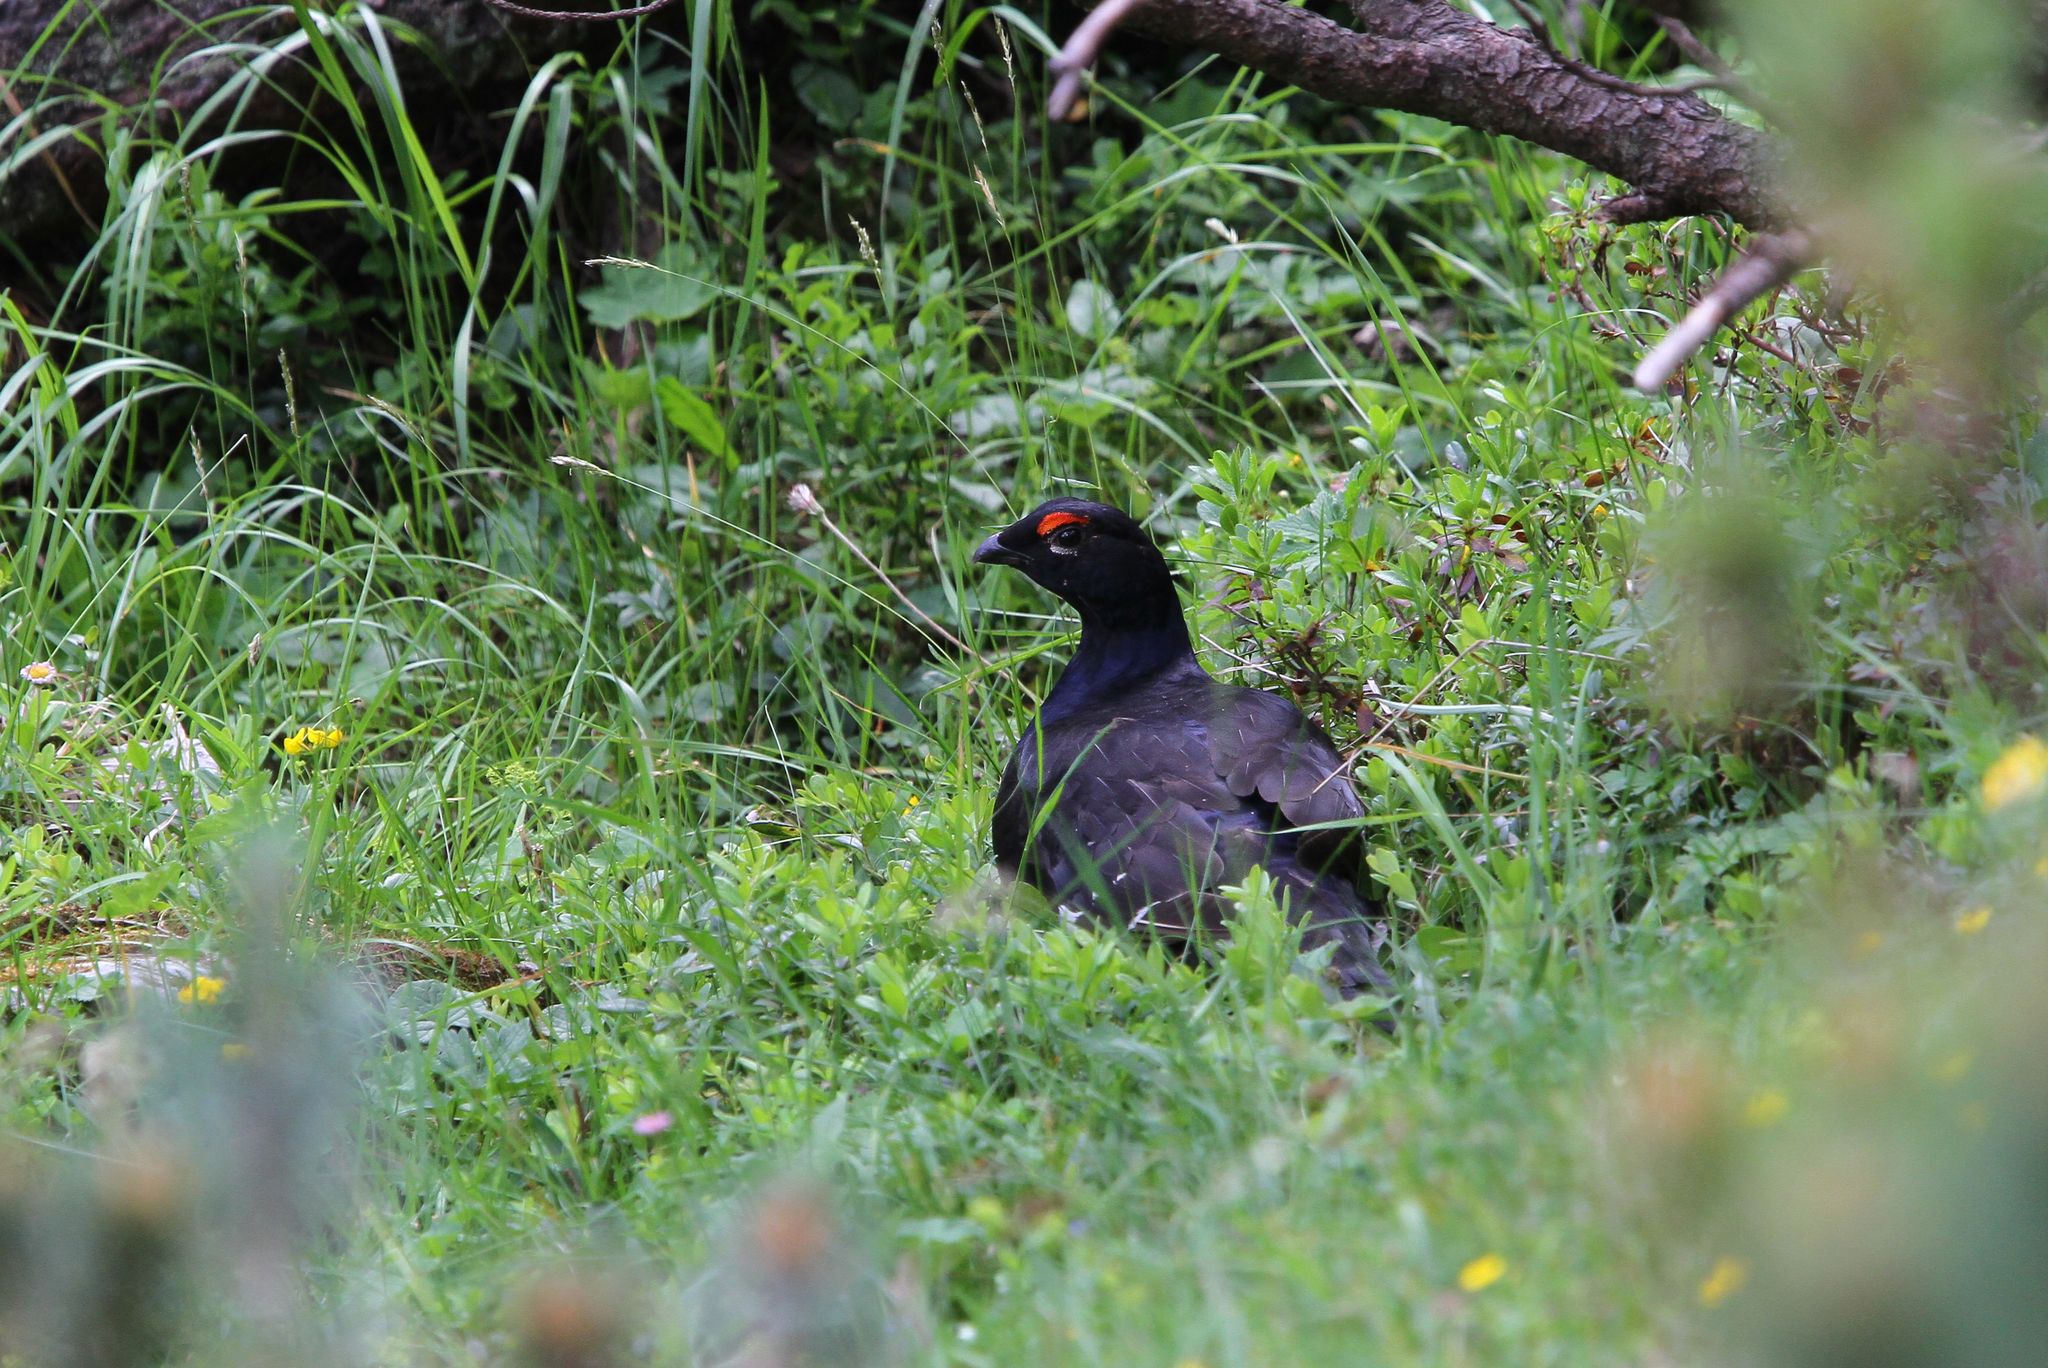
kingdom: Animalia
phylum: Chordata
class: Aves
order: Galliformes
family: Phasianidae
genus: Lyrurus
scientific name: Lyrurus tetrix
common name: Black grouse
